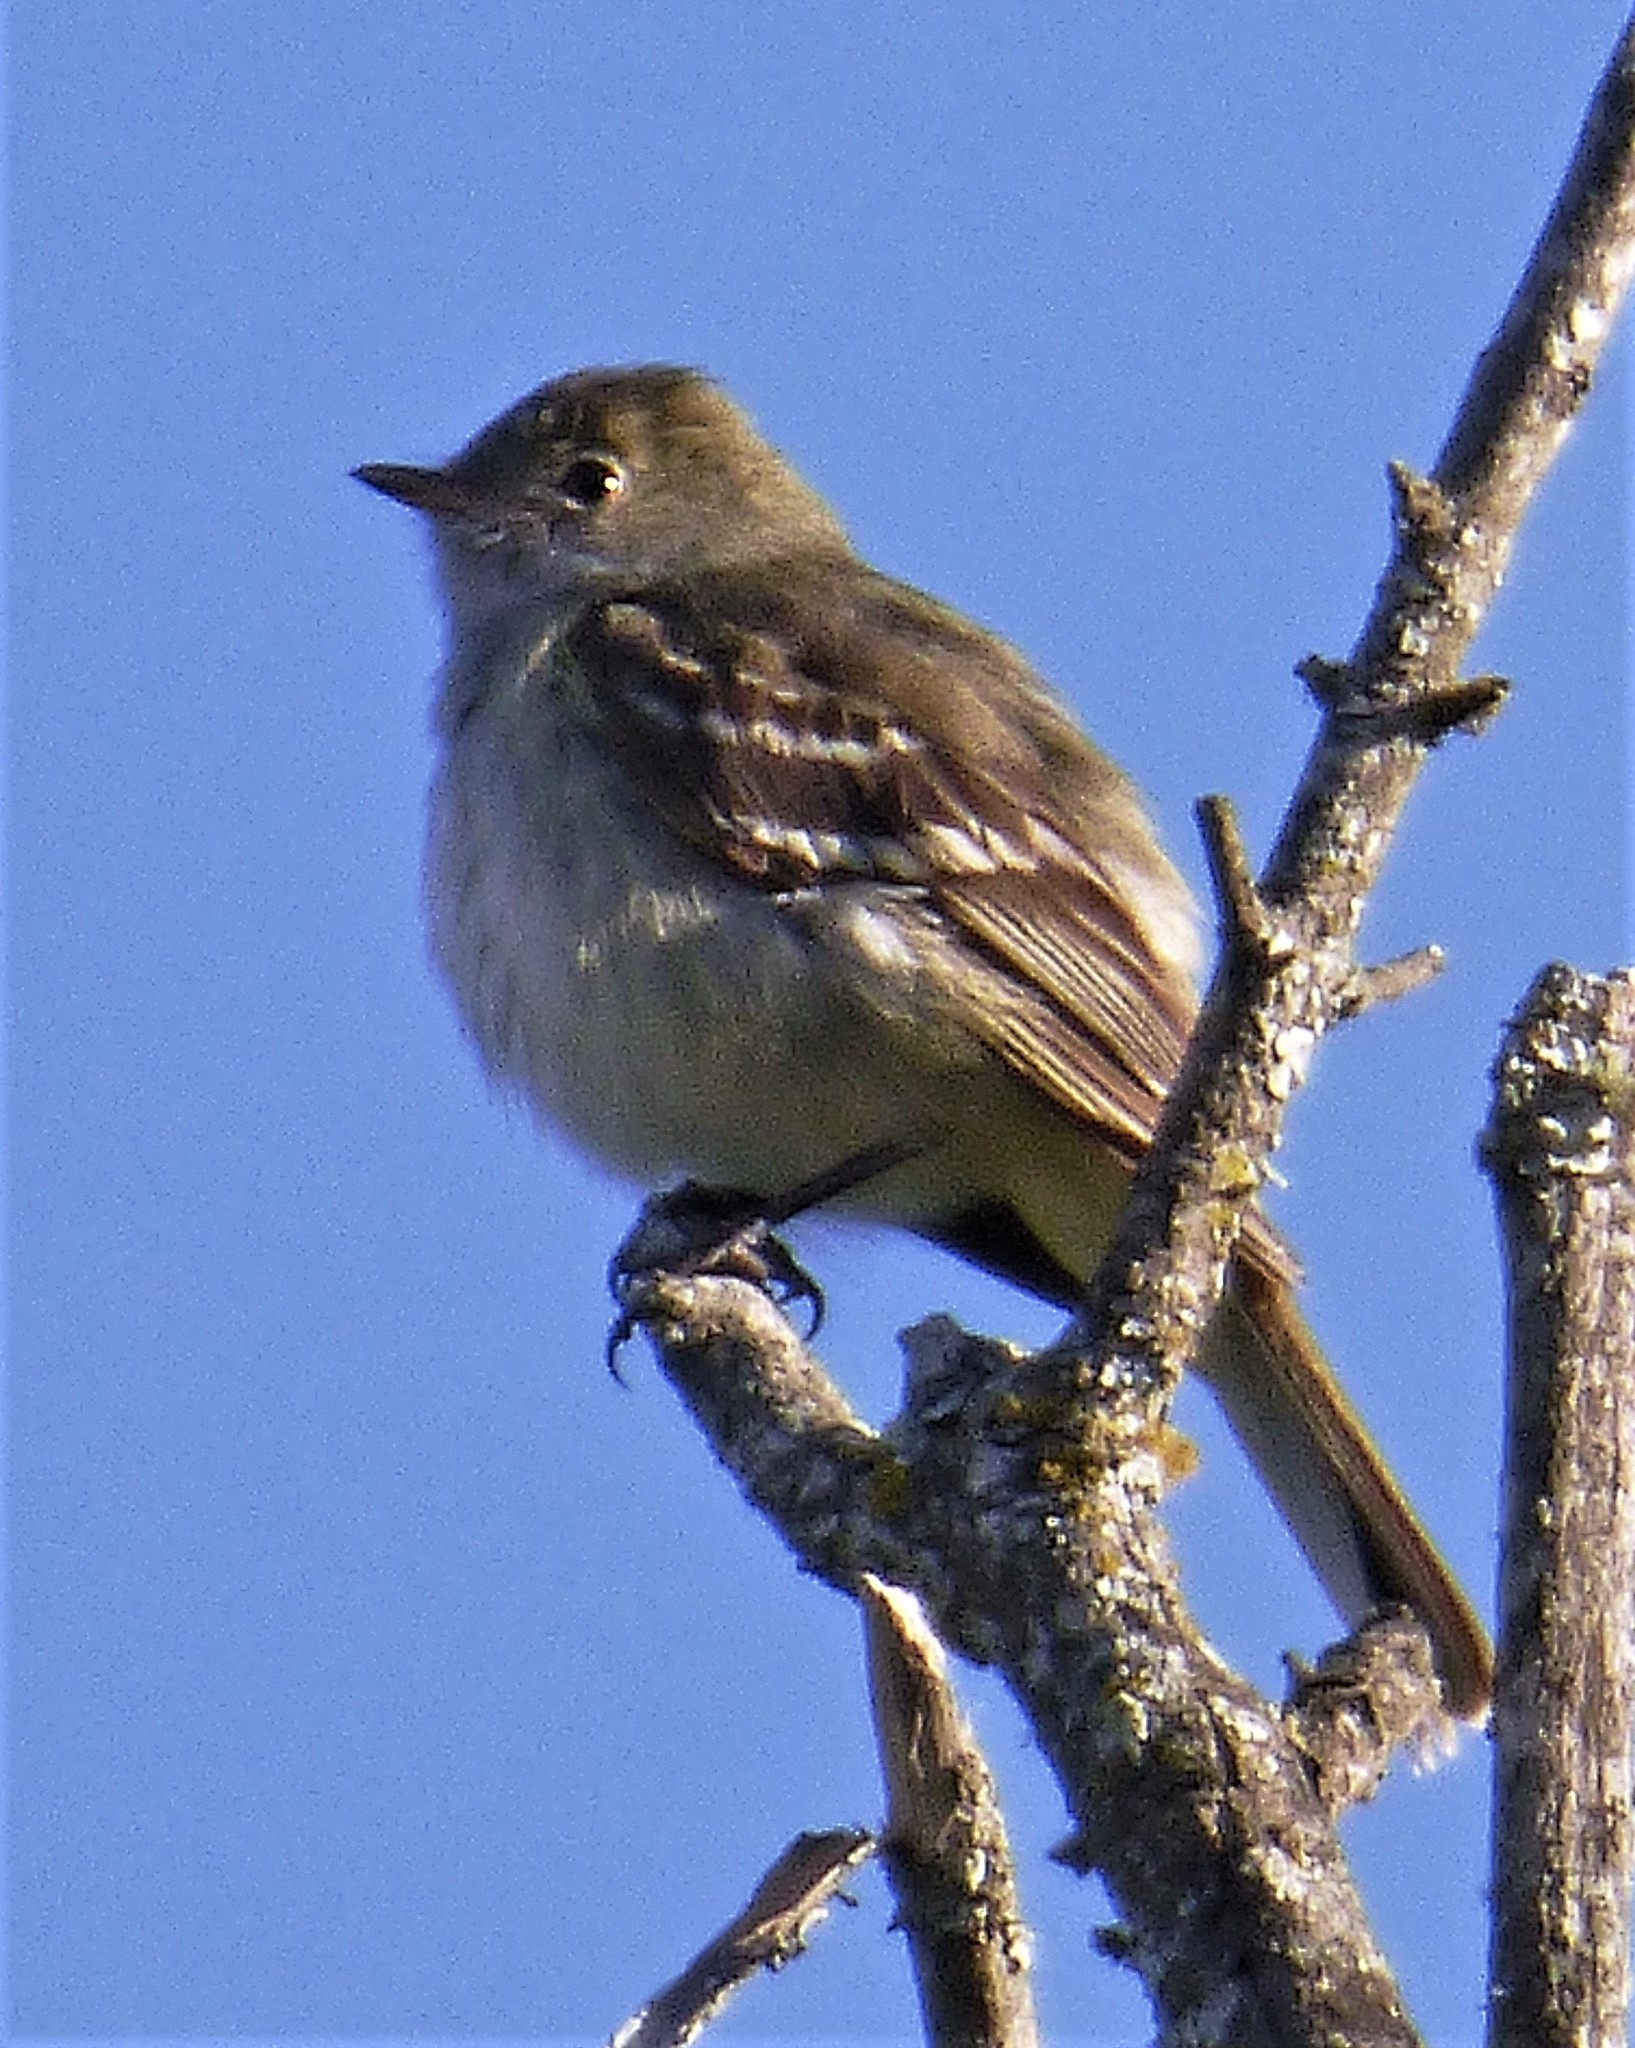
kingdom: Animalia
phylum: Chordata
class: Aves
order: Passeriformes
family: Tyrannidae
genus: Elaenia
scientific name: Elaenia parvirostris
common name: Small-billed elaenia
